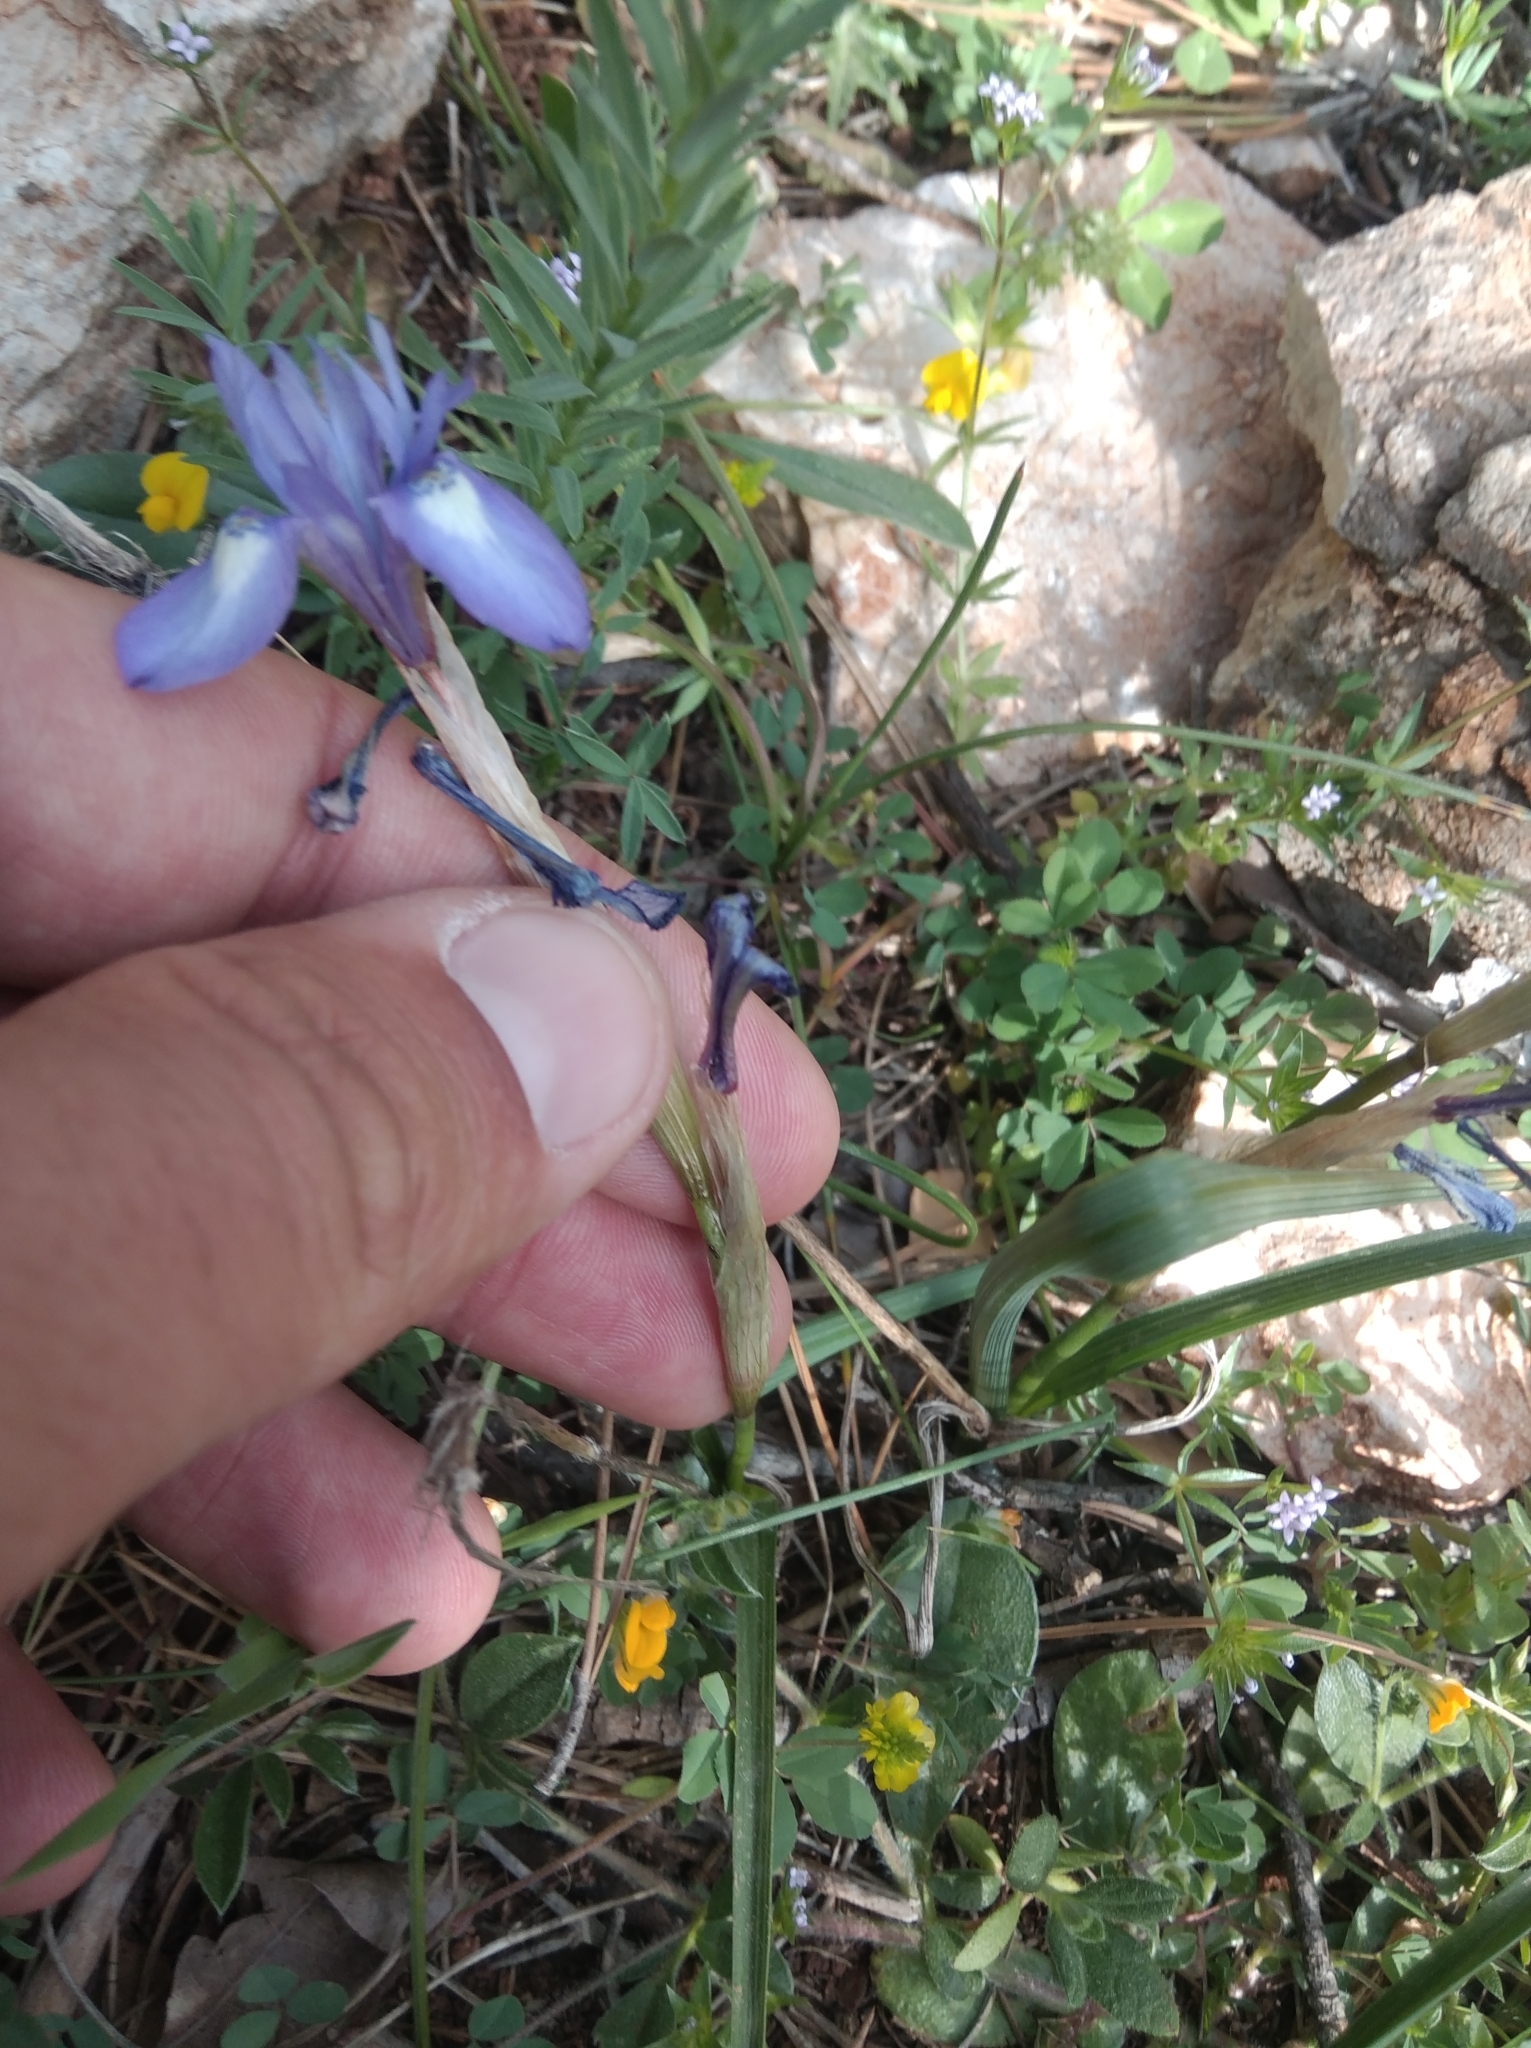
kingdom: Plantae
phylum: Tracheophyta
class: Liliopsida
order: Asparagales
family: Iridaceae
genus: Moraea
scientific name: Moraea sisyrinchium
